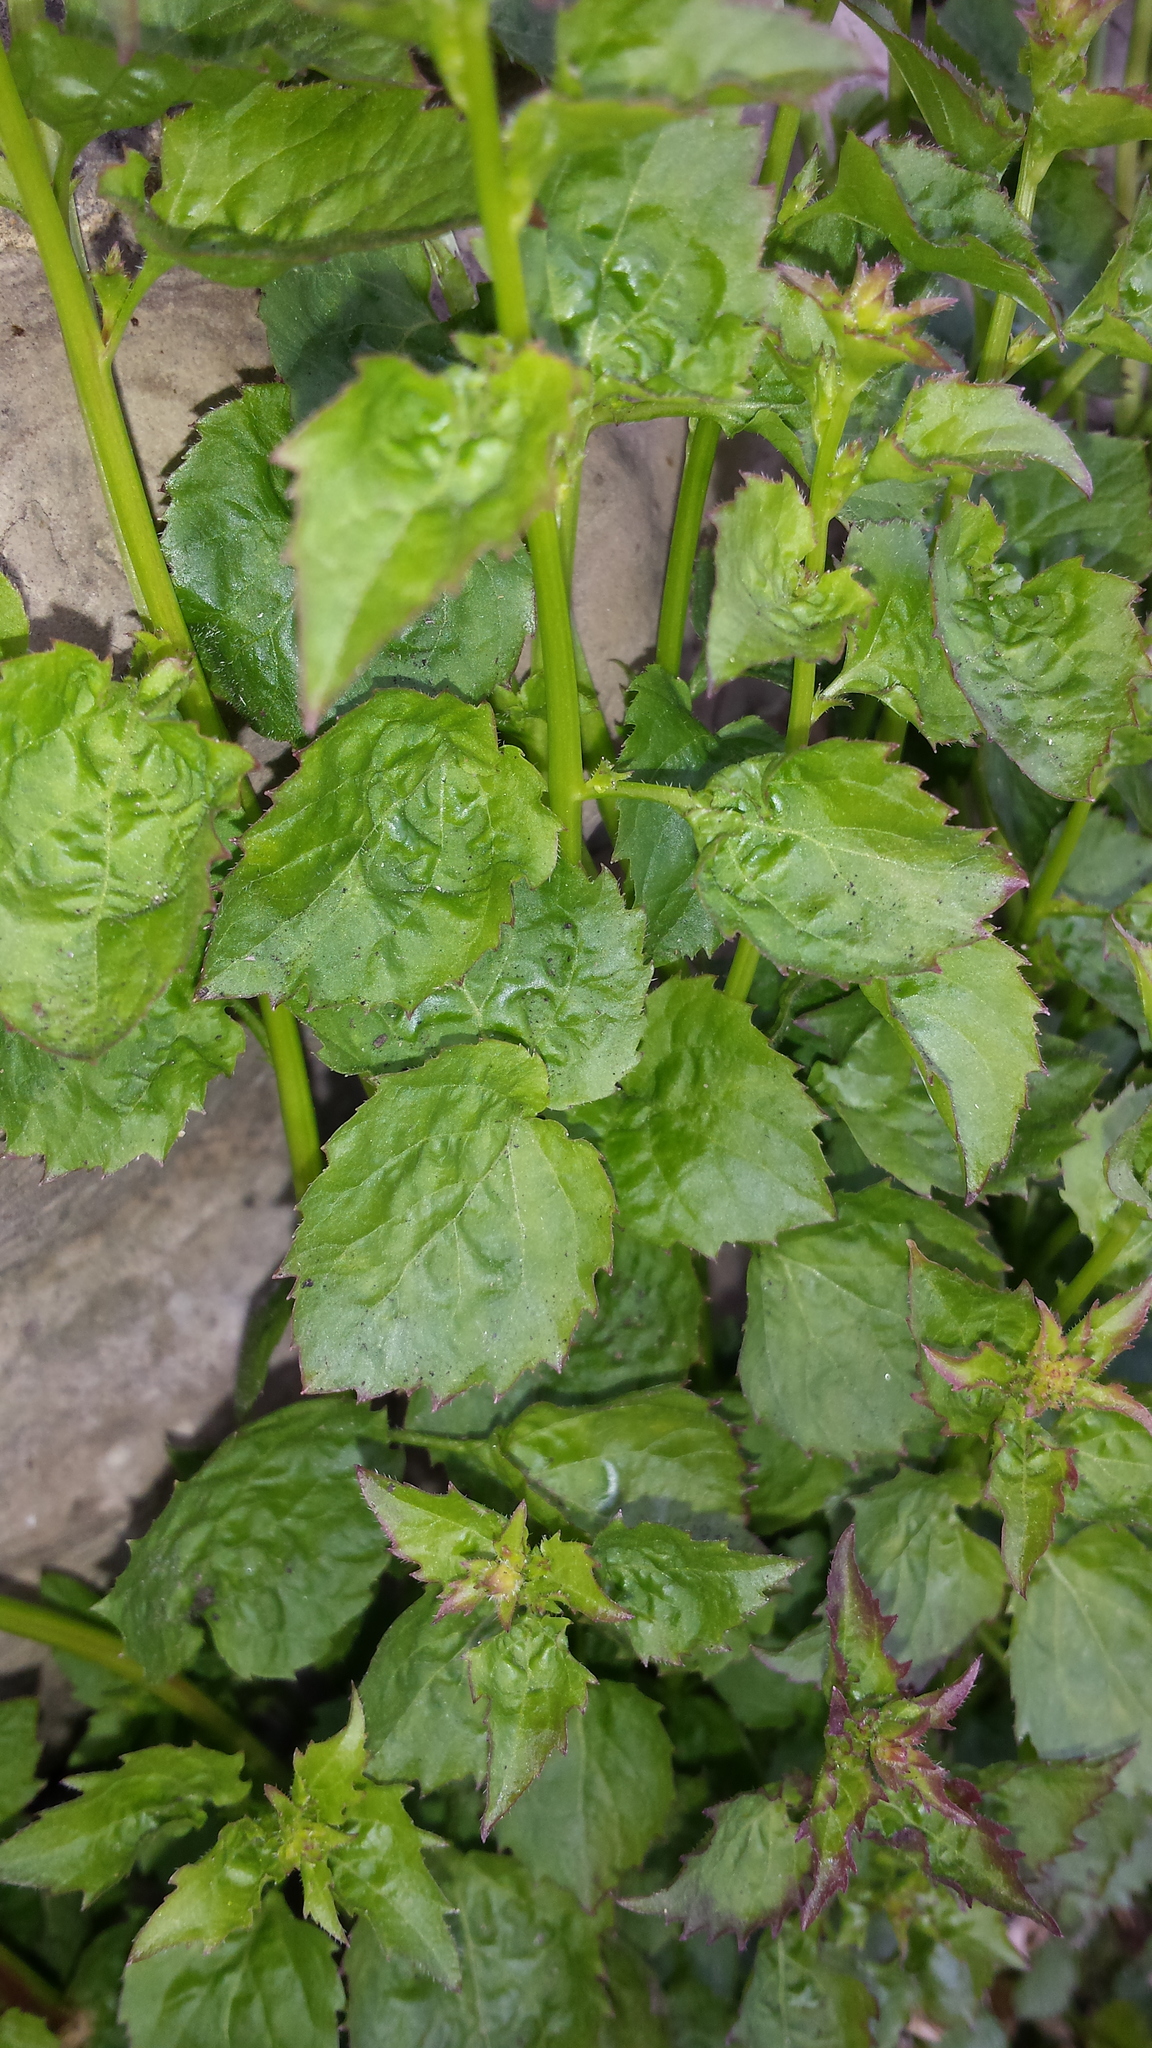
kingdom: Plantae
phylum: Tracheophyta
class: Magnoliopsida
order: Asterales
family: Campanulaceae
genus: Campanula
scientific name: Campanula poscharskyana
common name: Trailing bellflower
